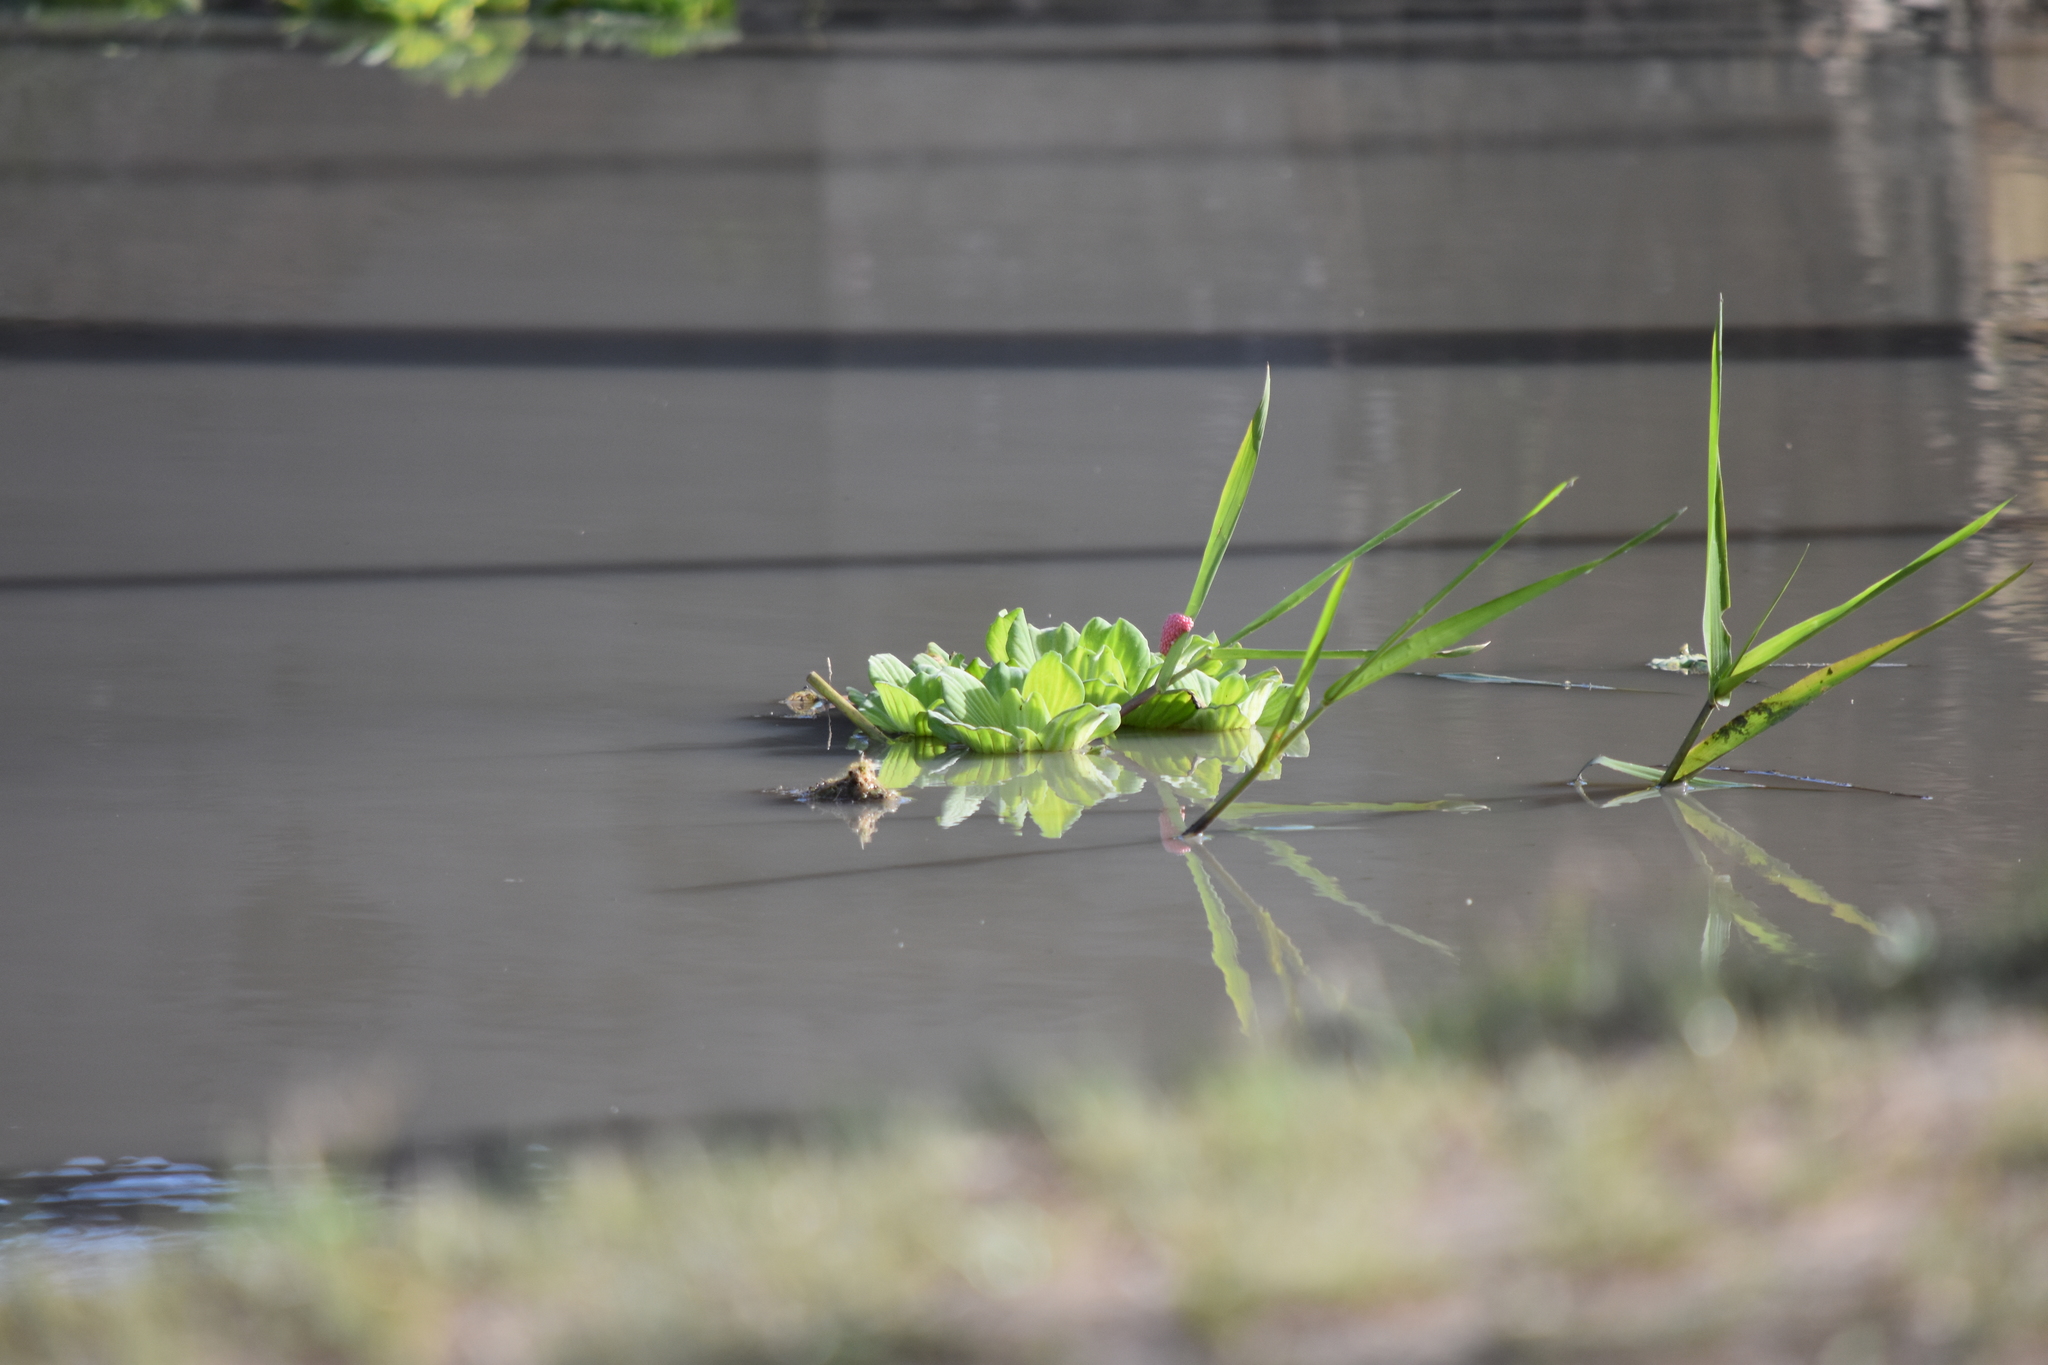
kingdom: Plantae
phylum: Tracheophyta
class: Liliopsida
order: Alismatales
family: Araceae
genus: Pistia
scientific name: Pistia stratiotes
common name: Water lettuce
